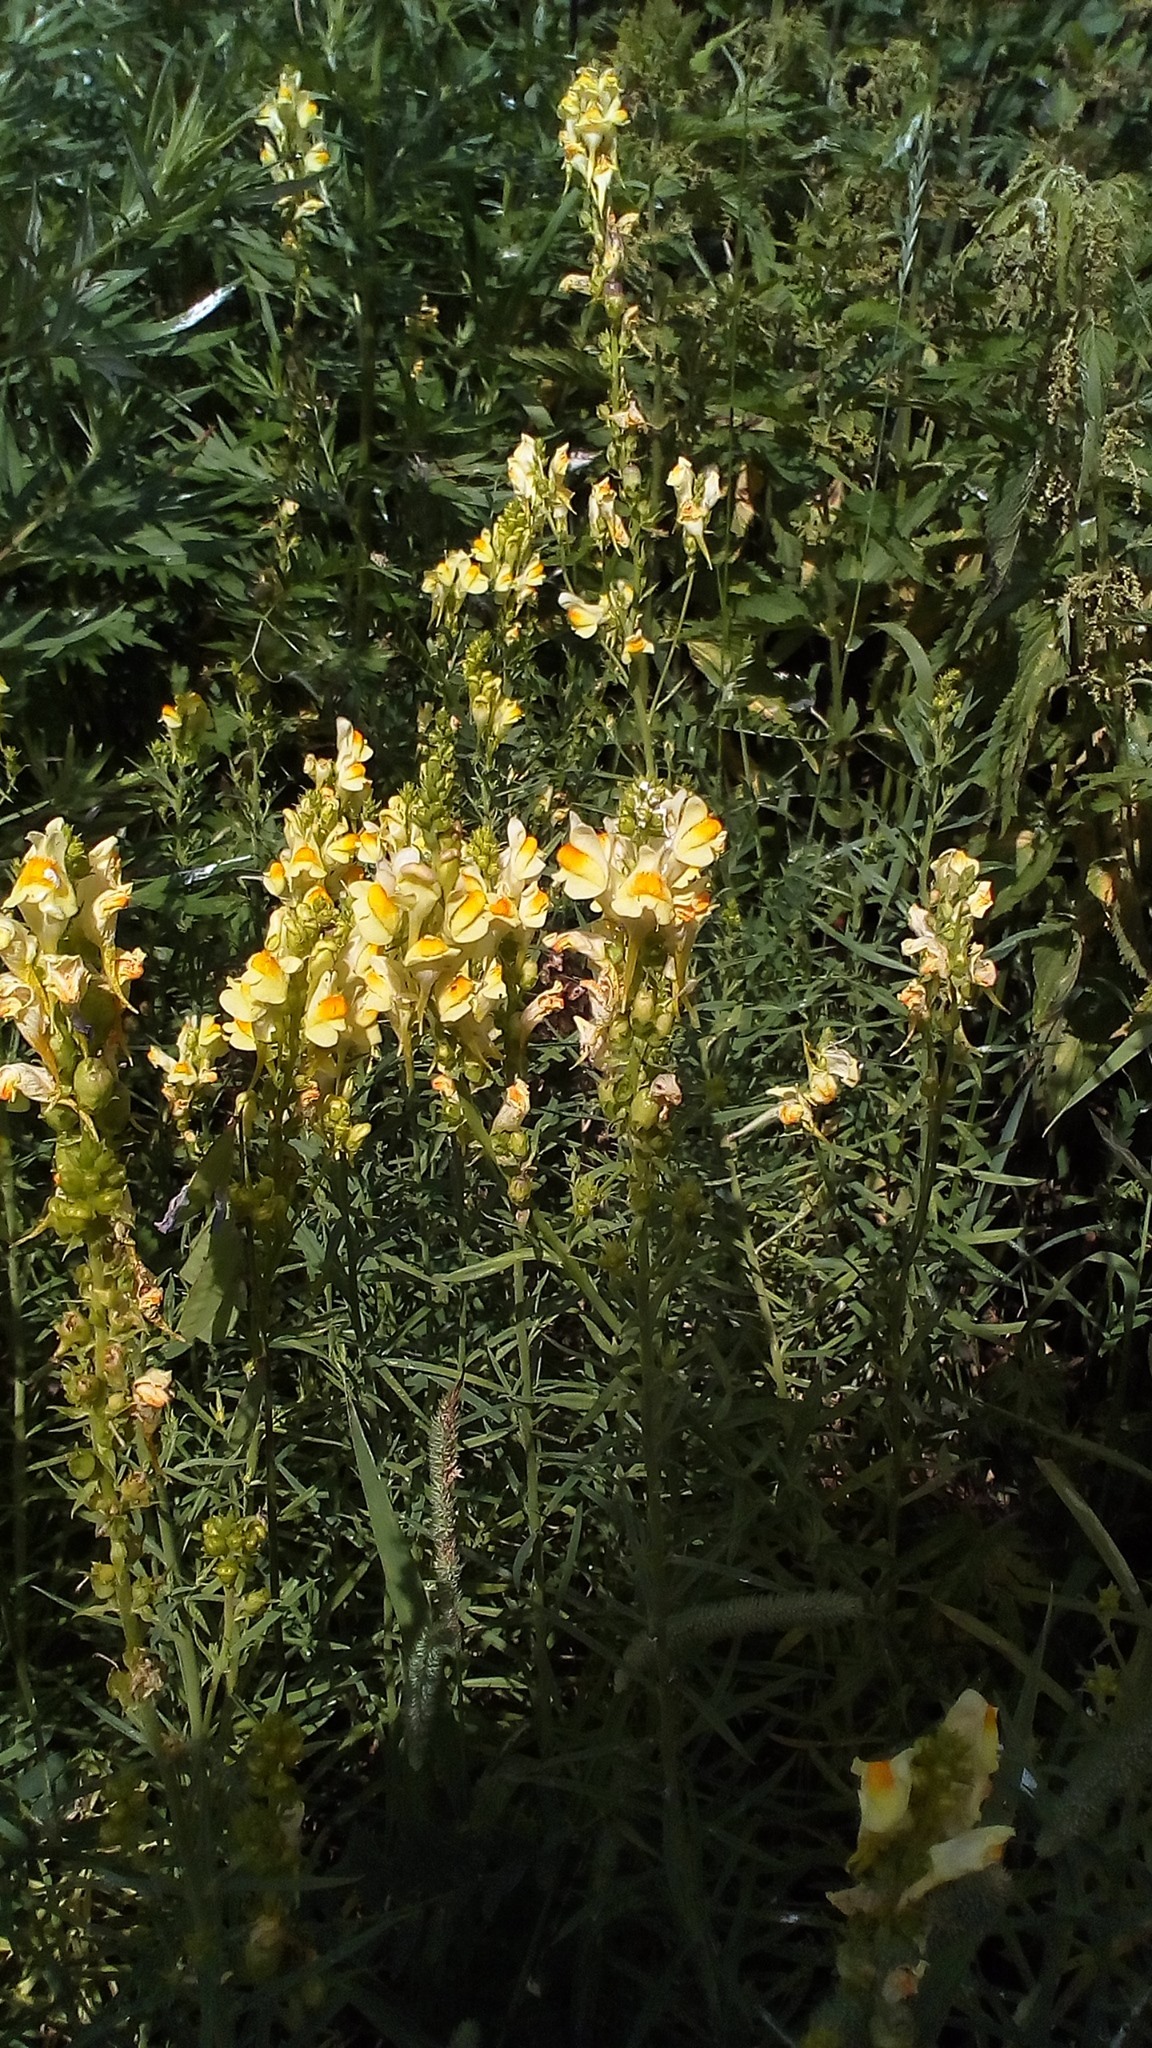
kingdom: Plantae
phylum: Tracheophyta
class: Magnoliopsida
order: Lamiales
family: Plantaginaceae
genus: Linaria
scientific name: Linaria vulgaris
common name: Butter and eggs
